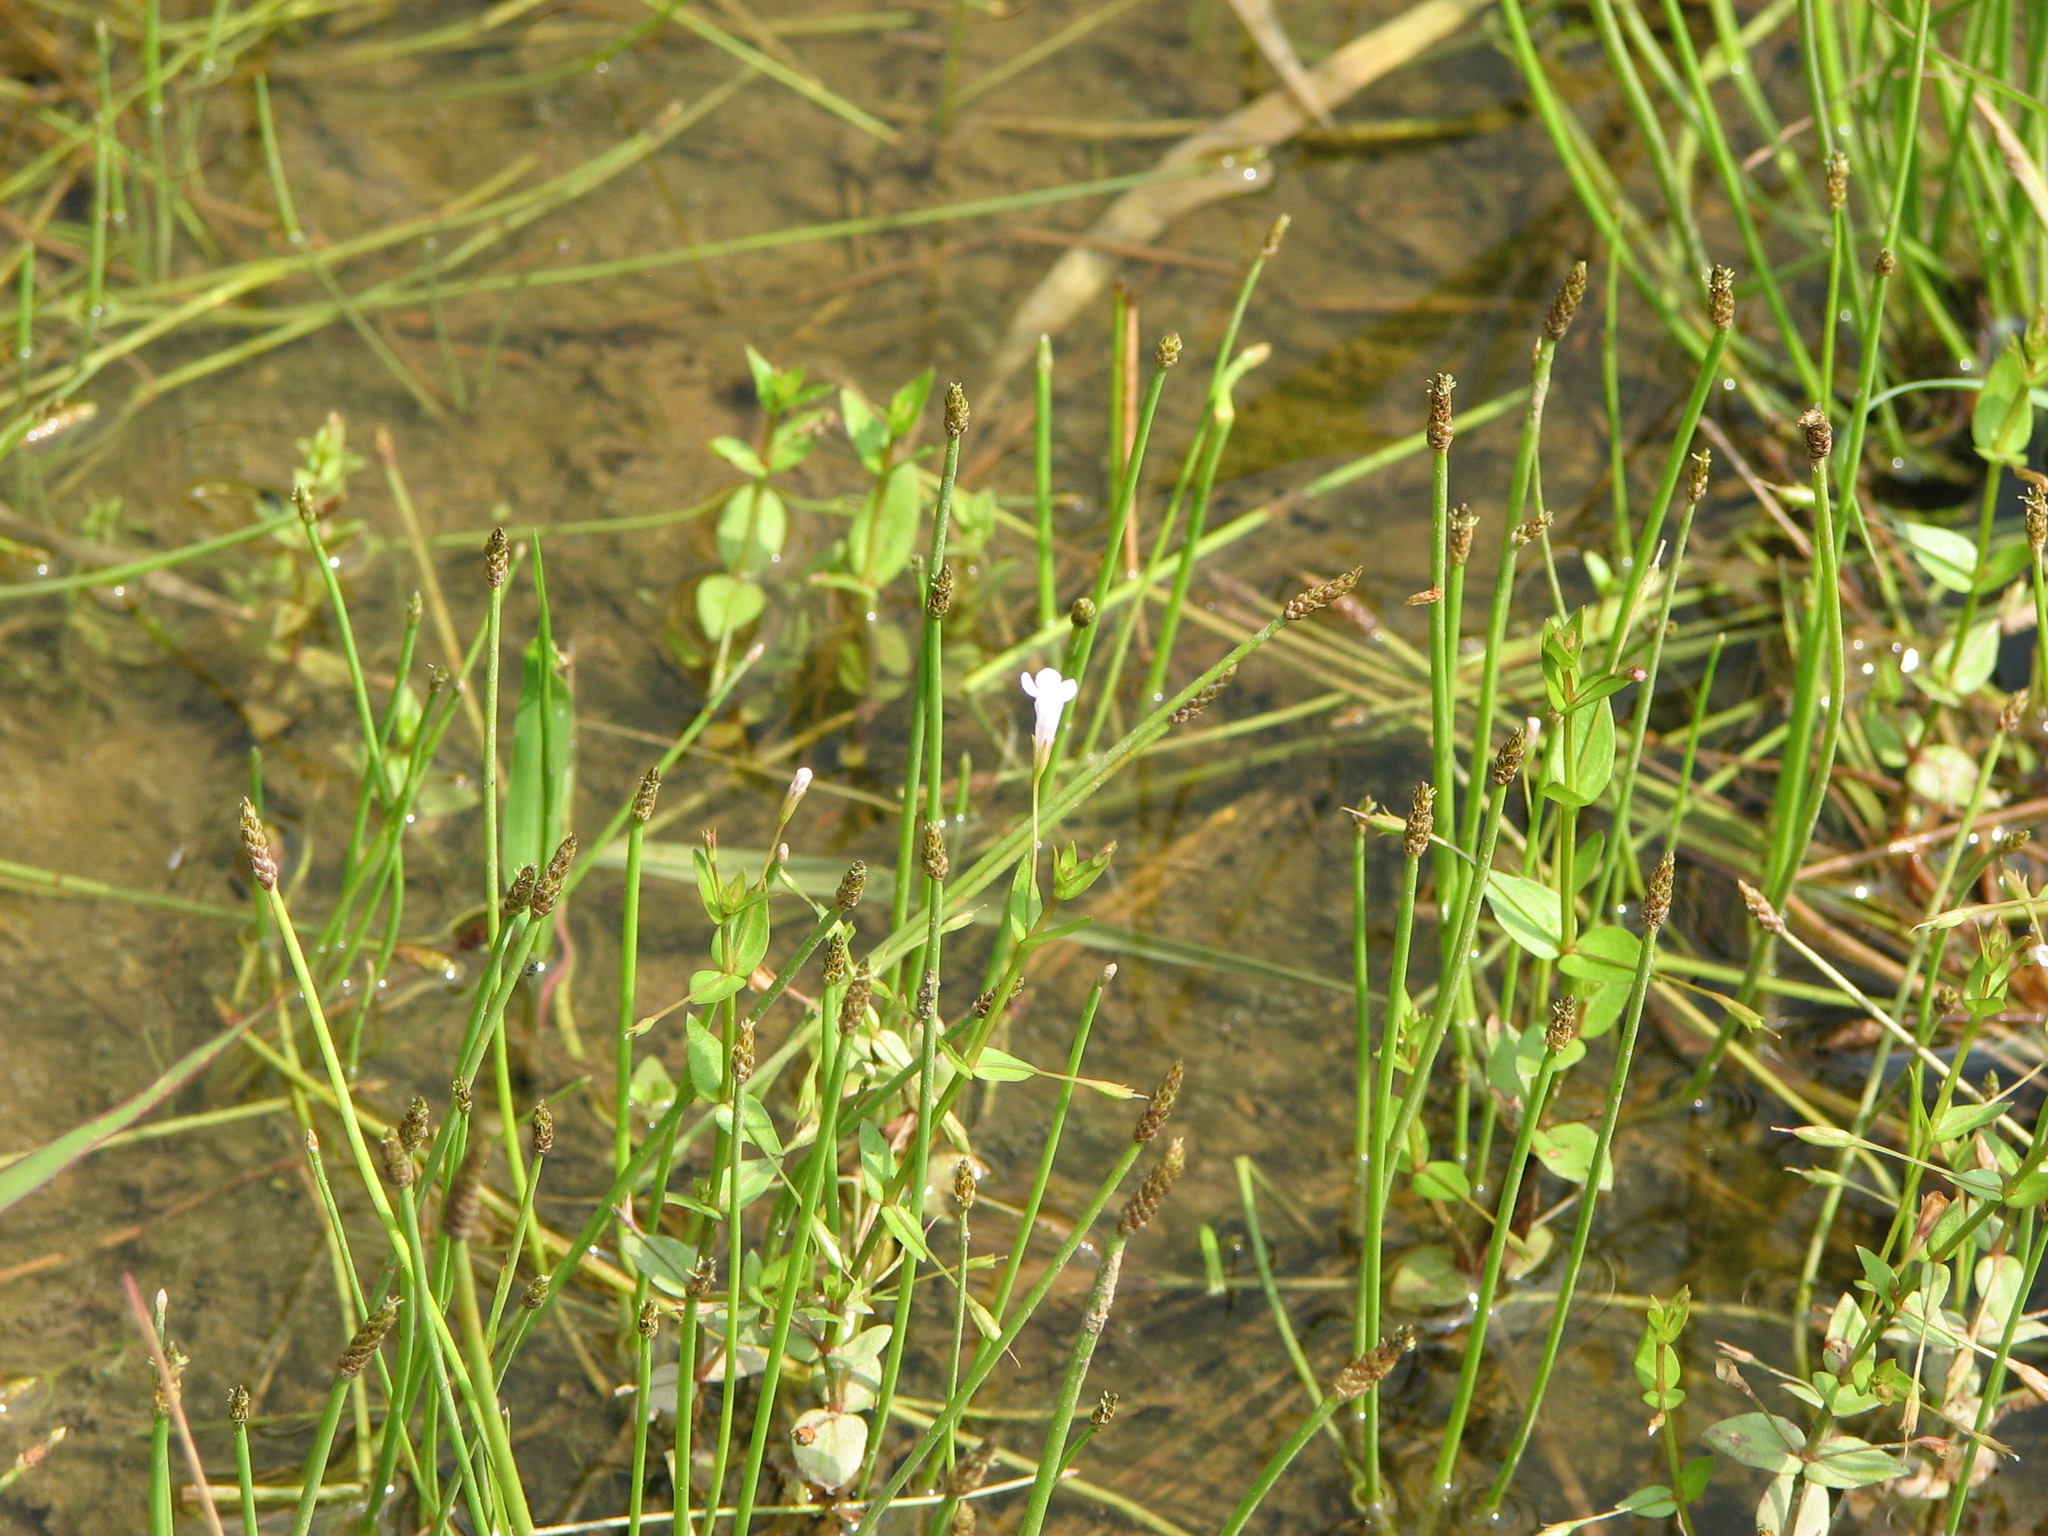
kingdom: Plantae
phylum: Tracheophyta
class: Magnoliopsida
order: Lamiales
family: Linderniaceae
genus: Lindernia
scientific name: Lindernia dubia
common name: Annual false pimpernel
